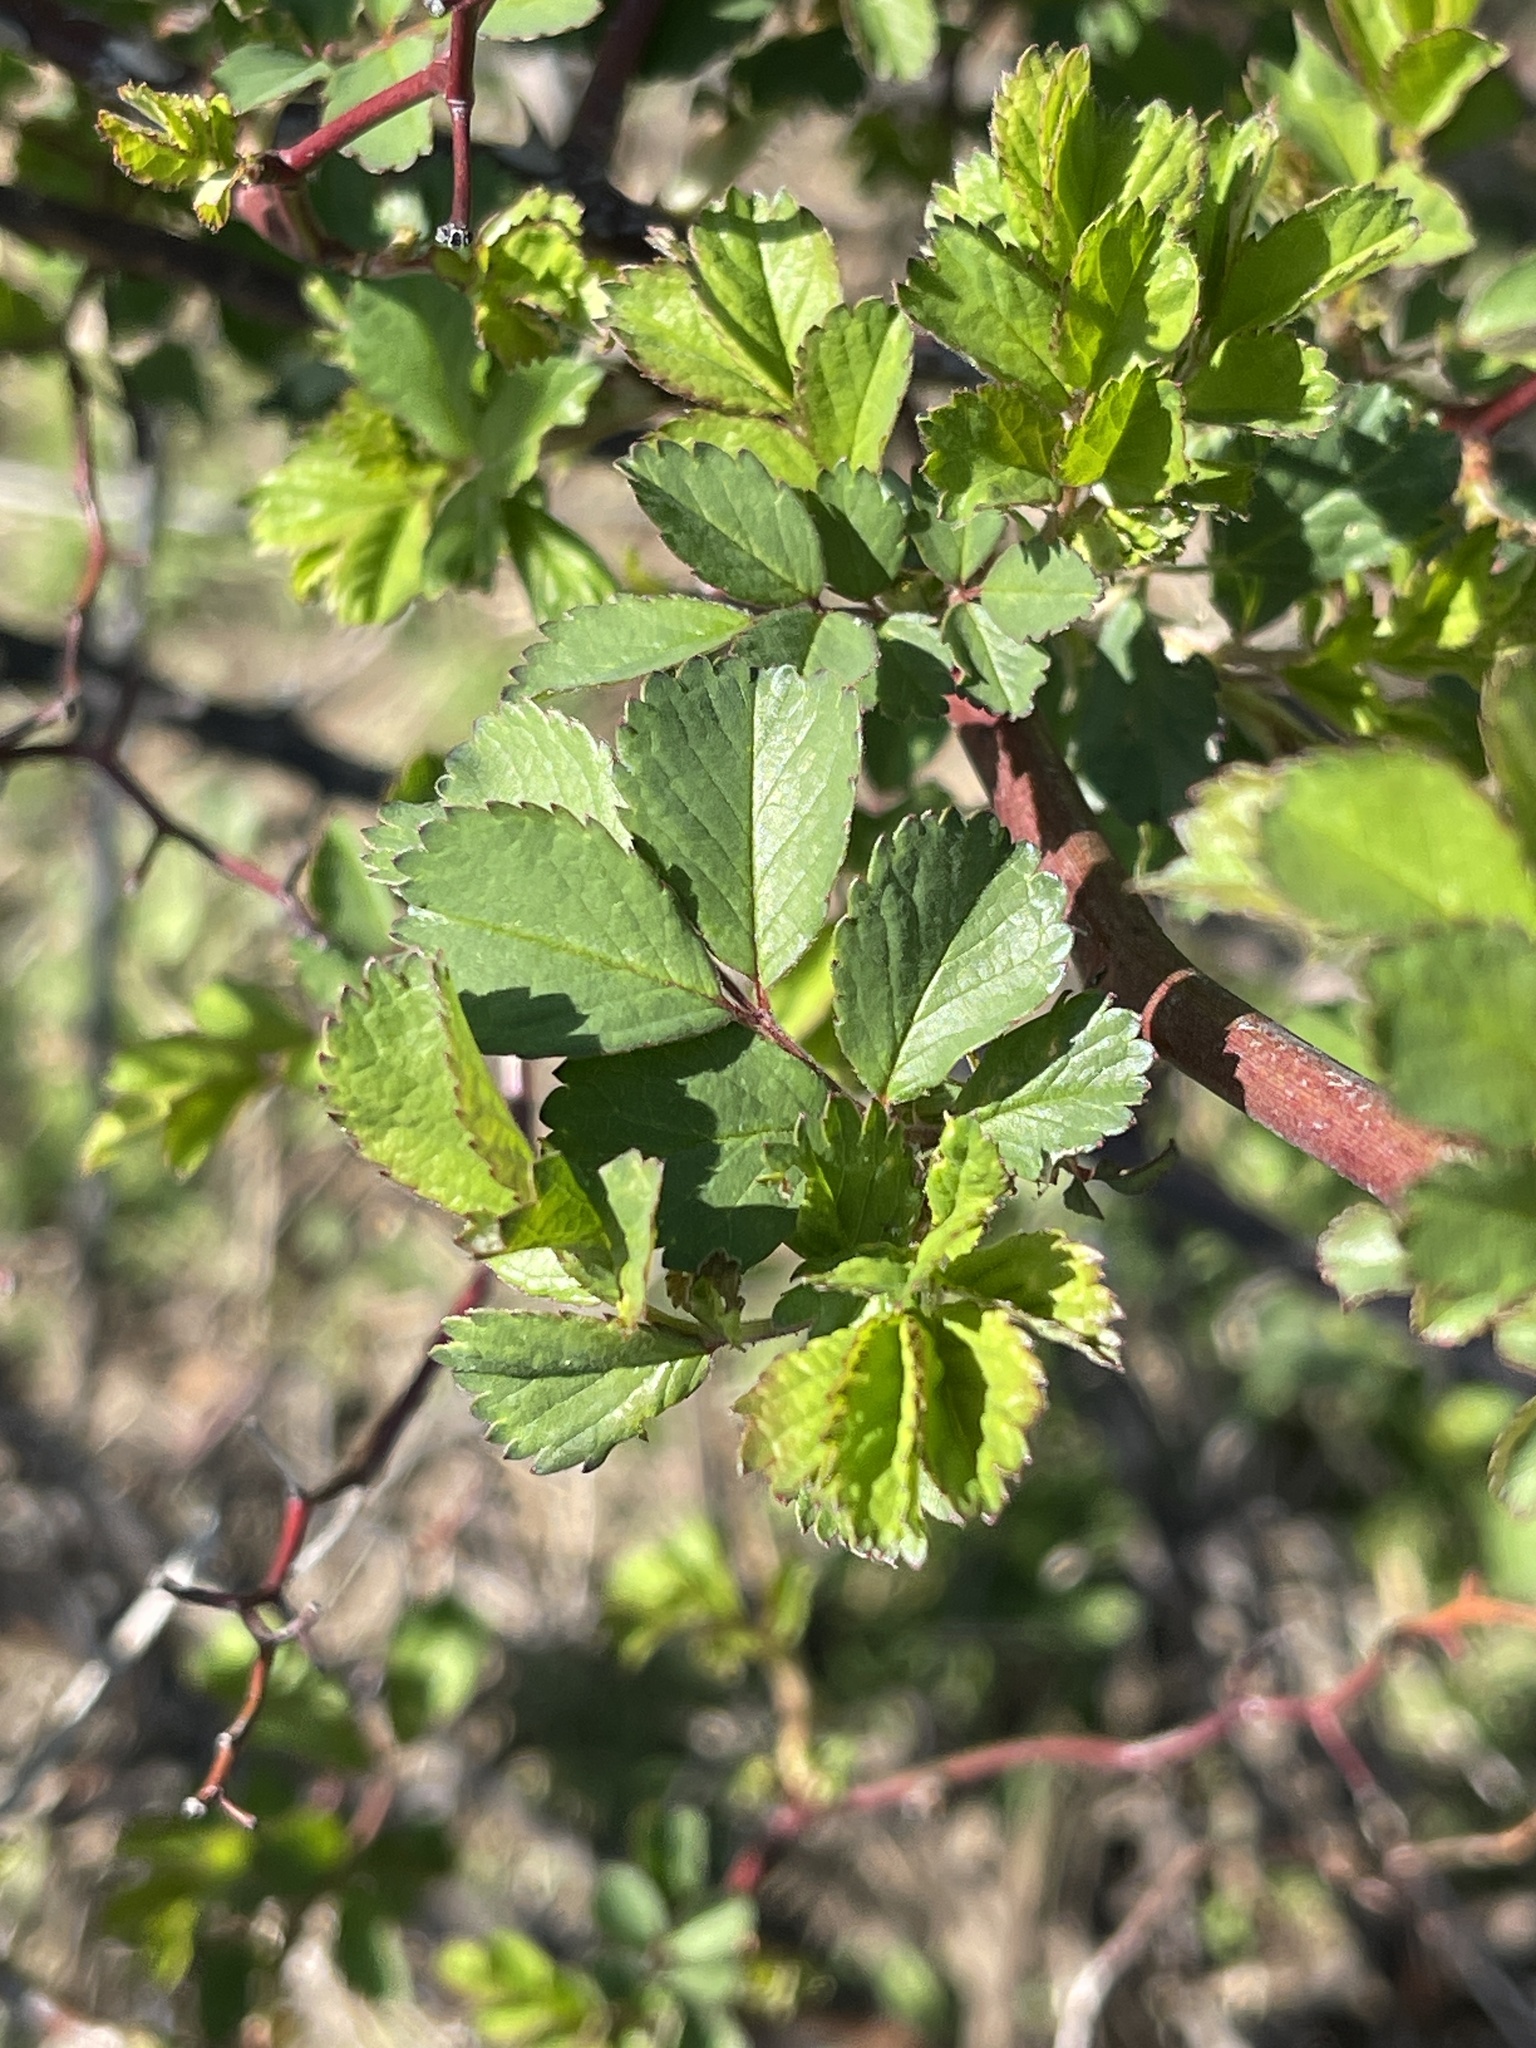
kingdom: Plantae
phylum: Tracheophyta
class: Magnoliopsida
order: Rosales
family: Rosaceae
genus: Rosa
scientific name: Rosa multiflora
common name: Multiflora rose
